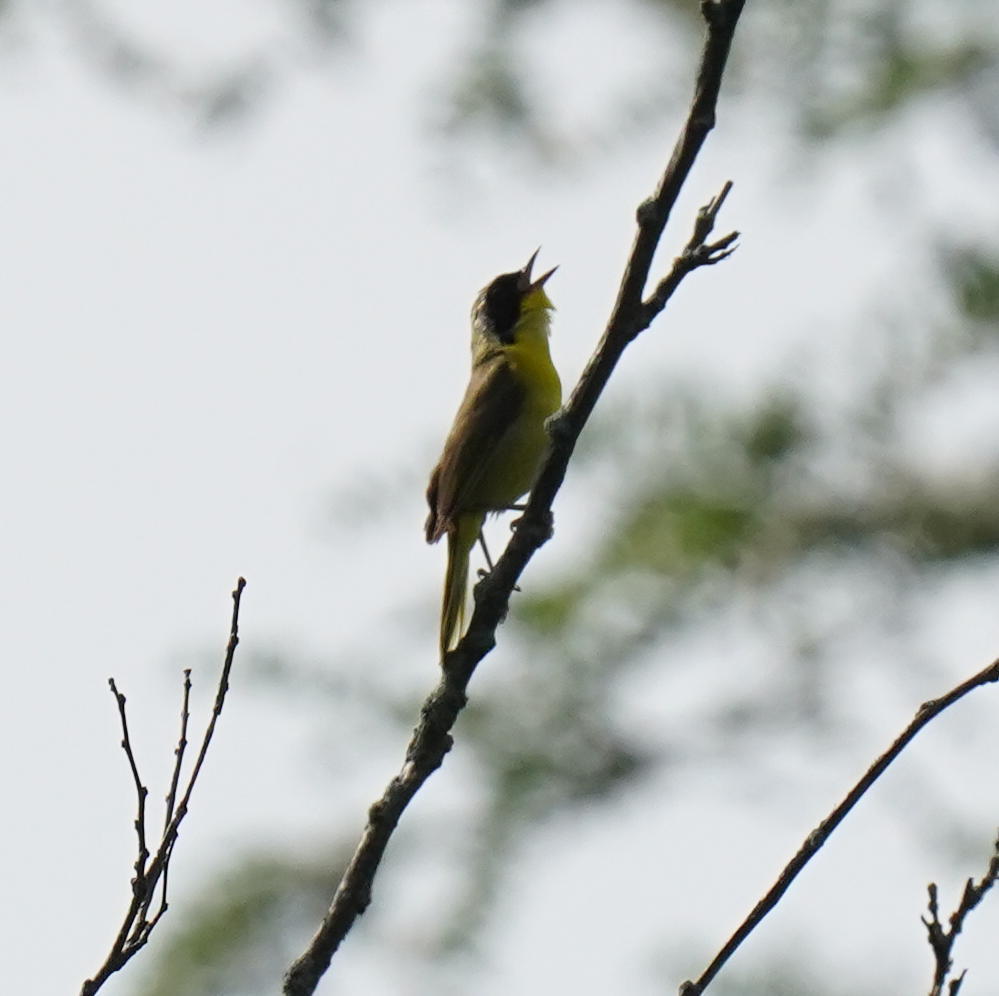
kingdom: Animalia
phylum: Chordata
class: Aves
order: Passeriformes
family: Parulidae
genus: Geothlypis
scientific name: Geothlypis trichas
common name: Common yellowthroat
